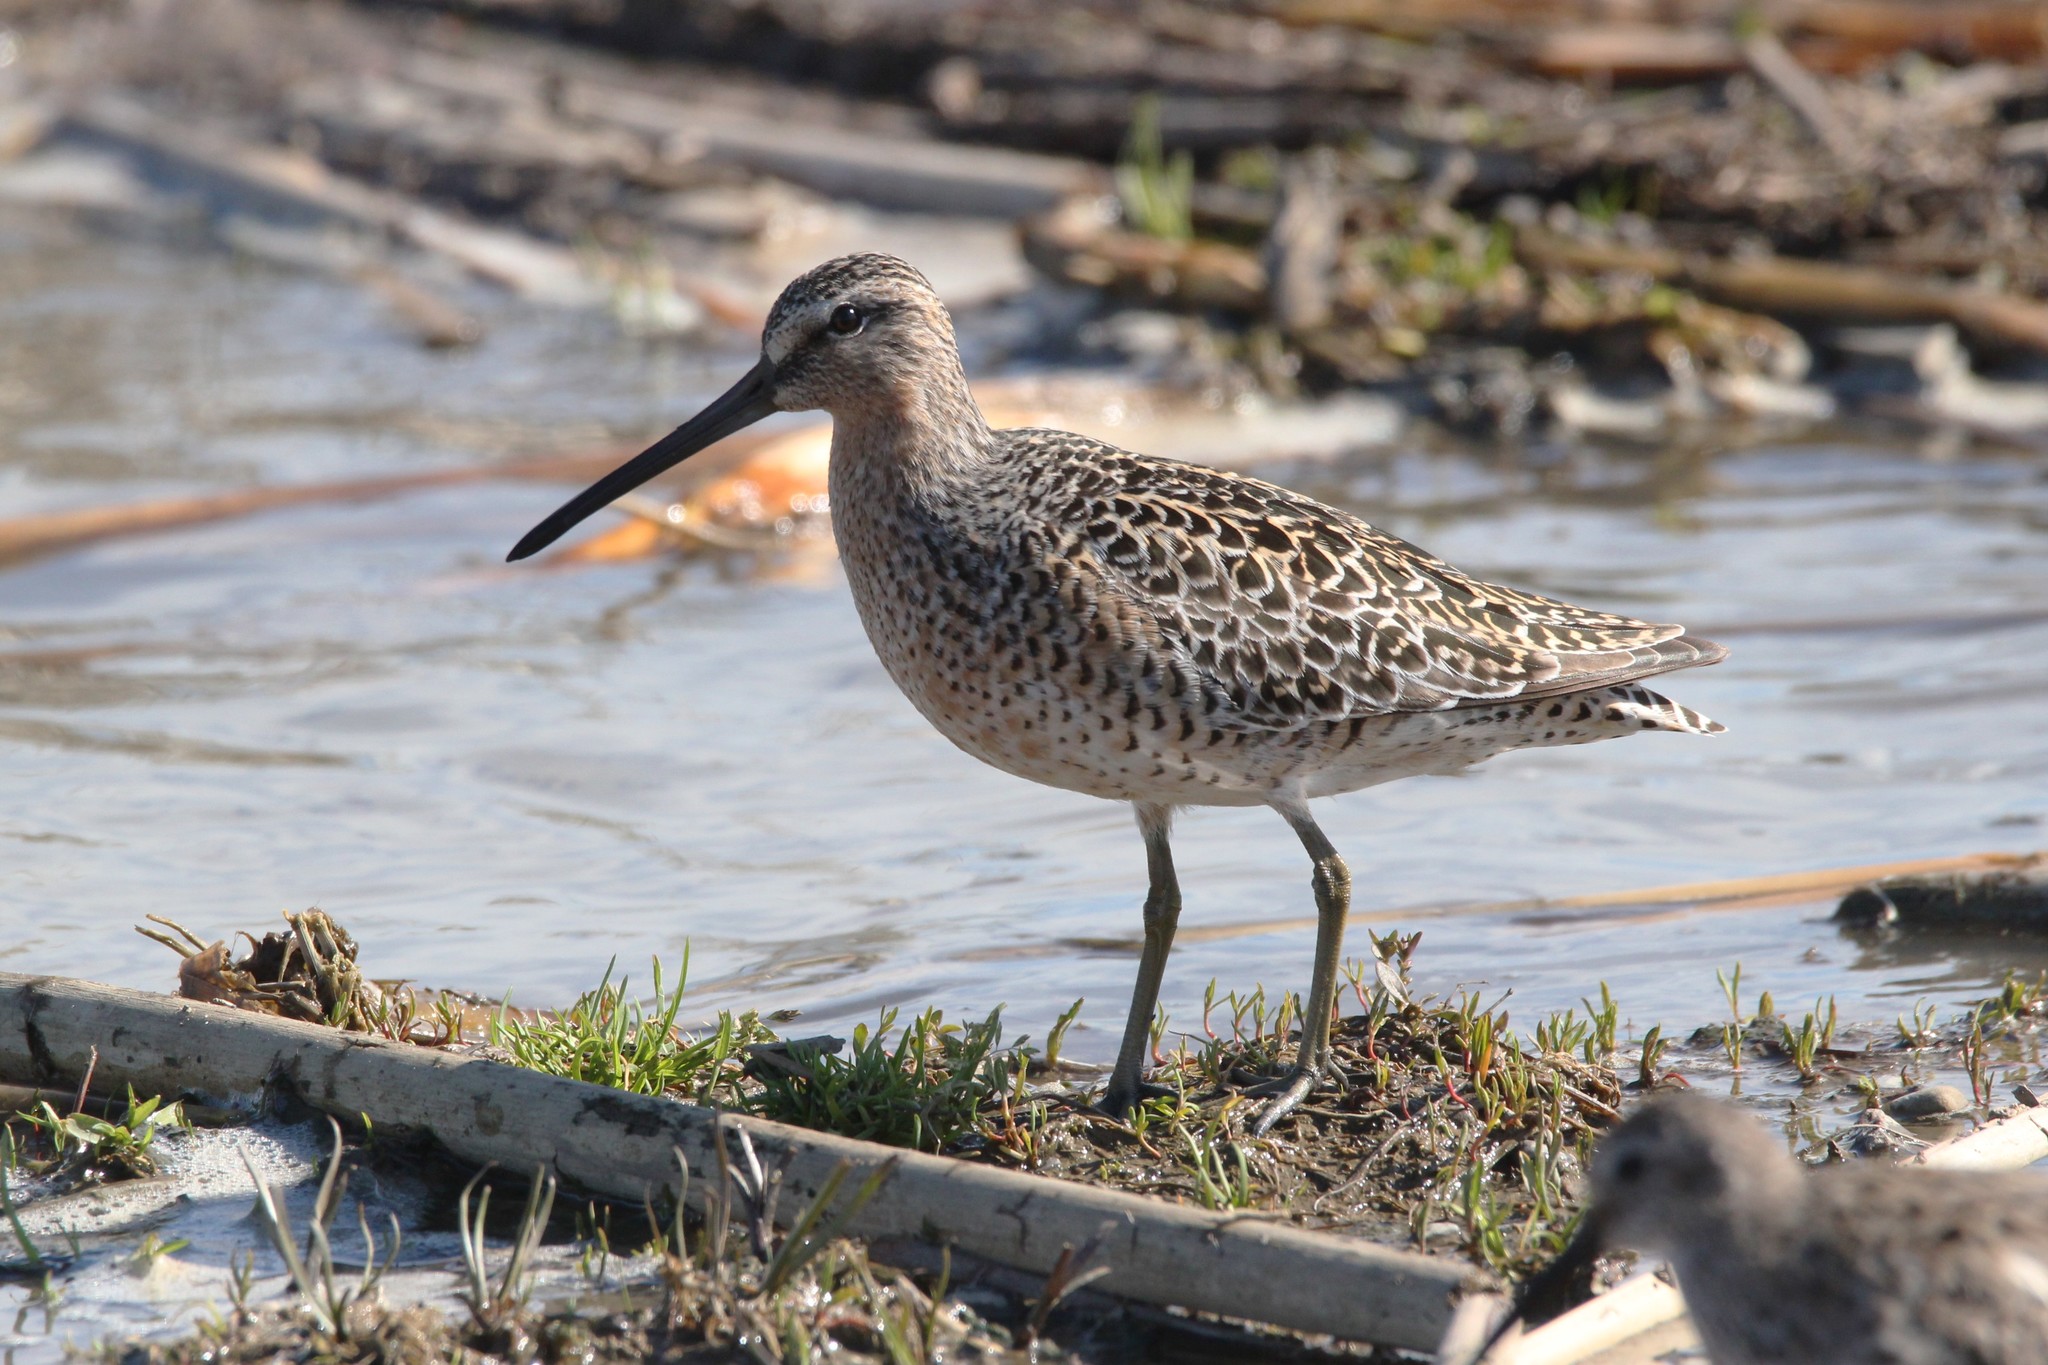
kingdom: Animalia
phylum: Chordata
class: Aves
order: Charadriiformes
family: Scolopacidae
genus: Limnodromus
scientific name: Limnodromus griseus
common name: Short-billed dowitcher
